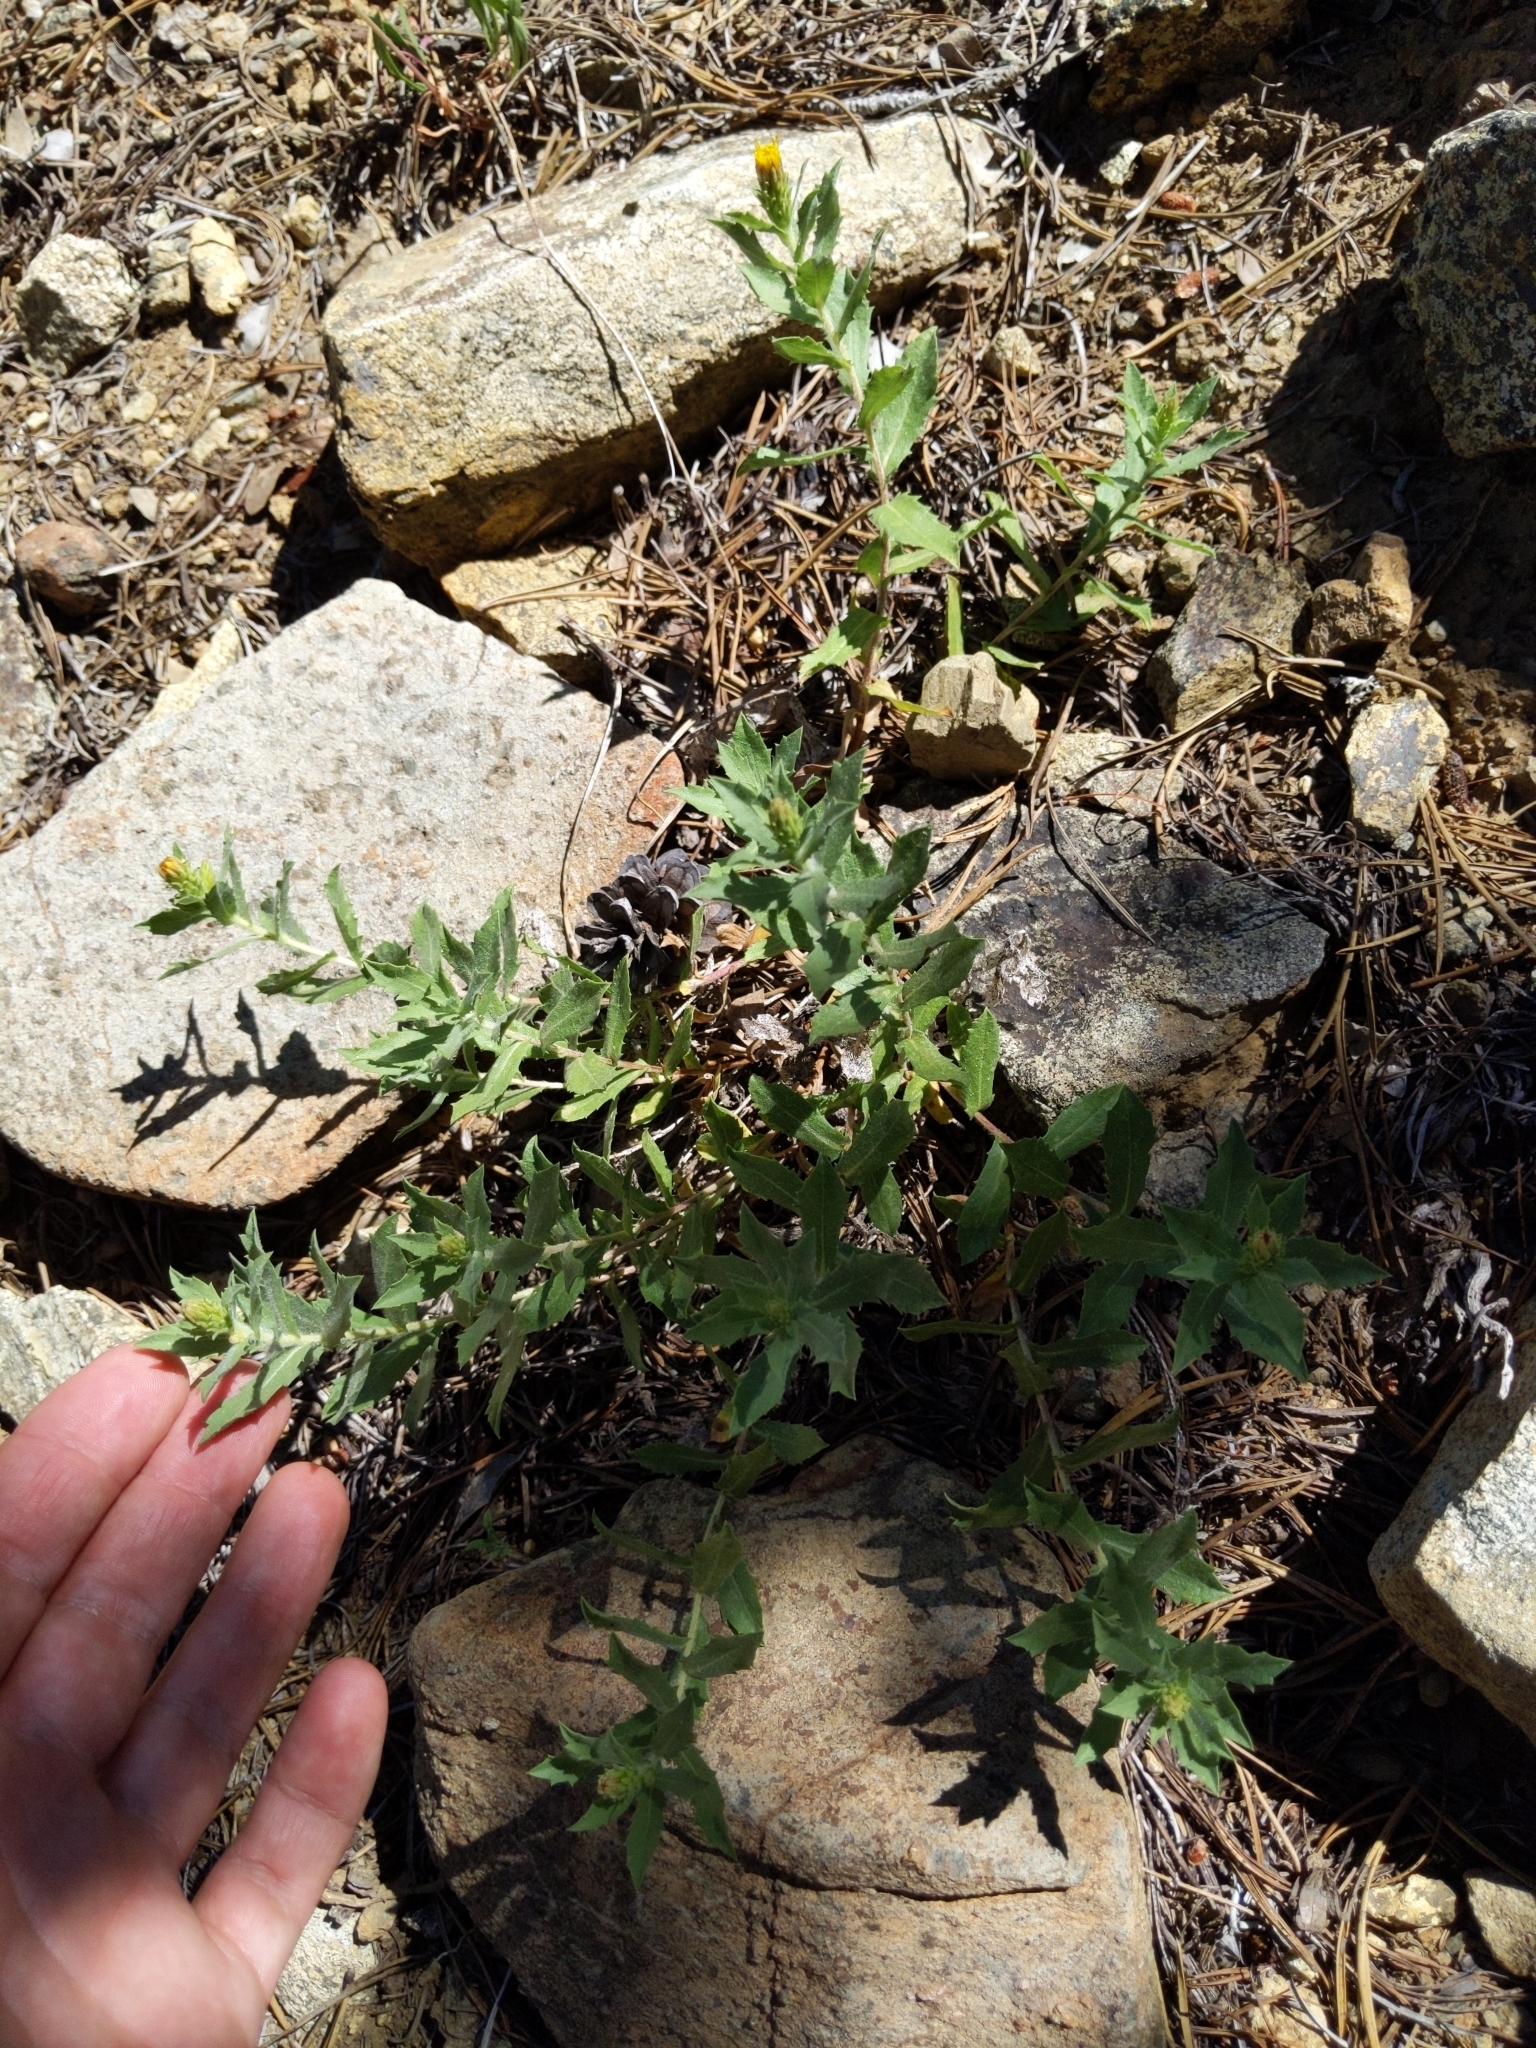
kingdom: Plantae
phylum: Tracheophyta
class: Magnoliopsida
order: Asterales
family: Asteraceae
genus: Adeia
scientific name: Adeia discoidea
